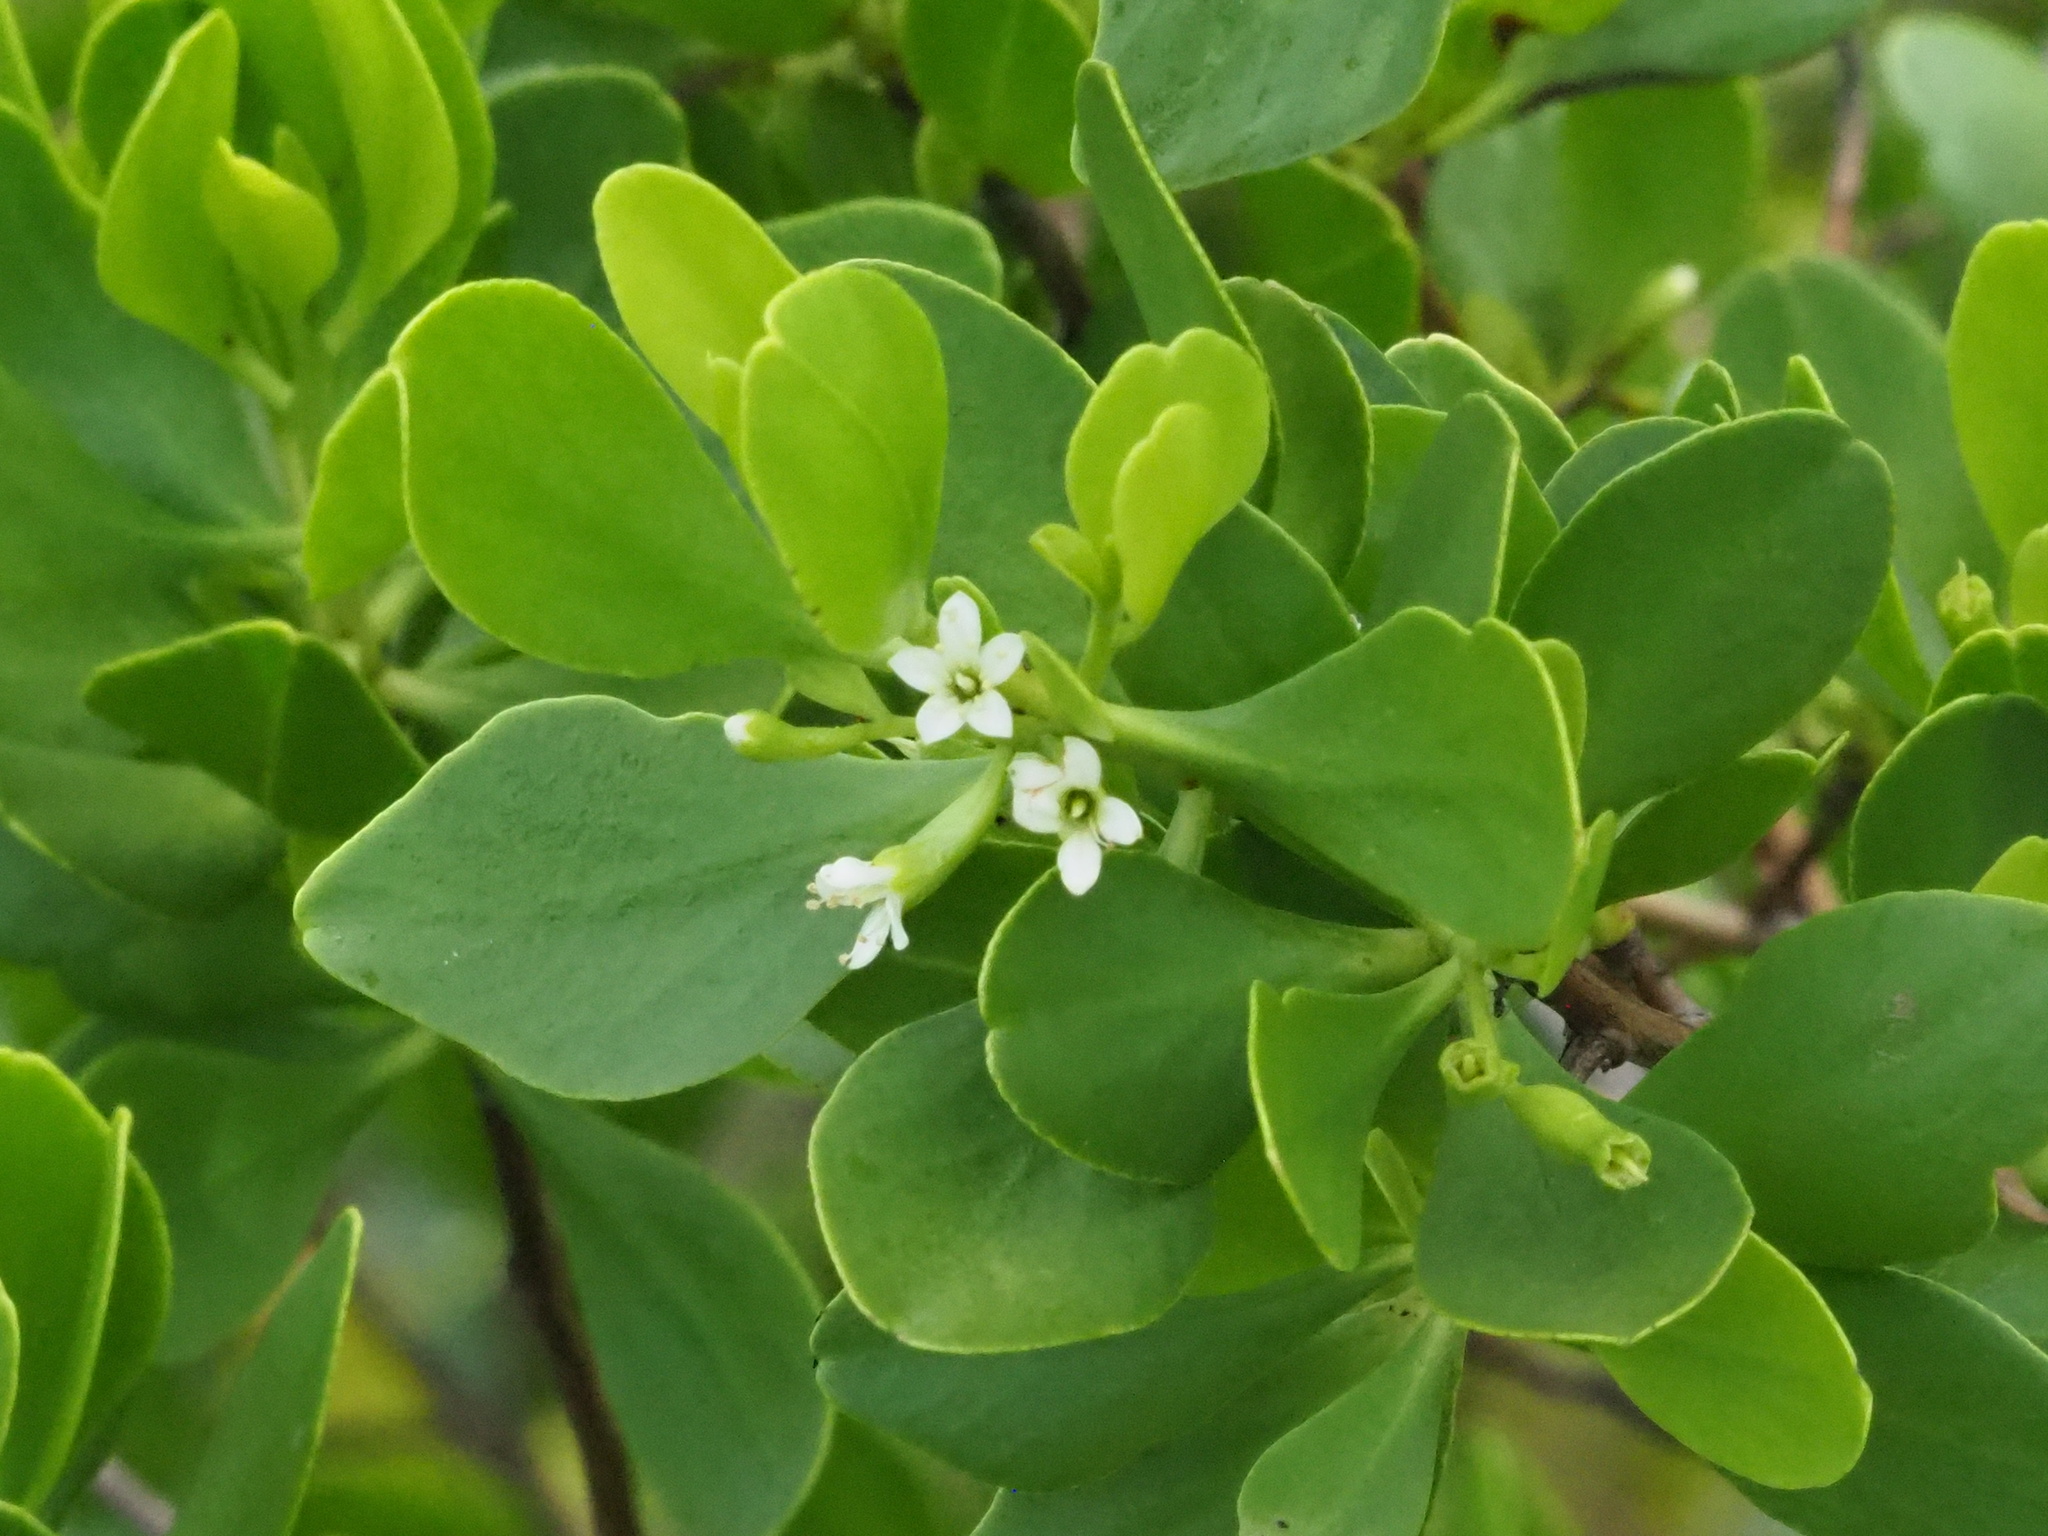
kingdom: Plantae
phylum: Tracheophyta
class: Magnoliopsida
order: Myrtales
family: Combretaceae
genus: Lumnitzera
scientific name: Lumnitzera racemosa
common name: White-flowered black mangrove
